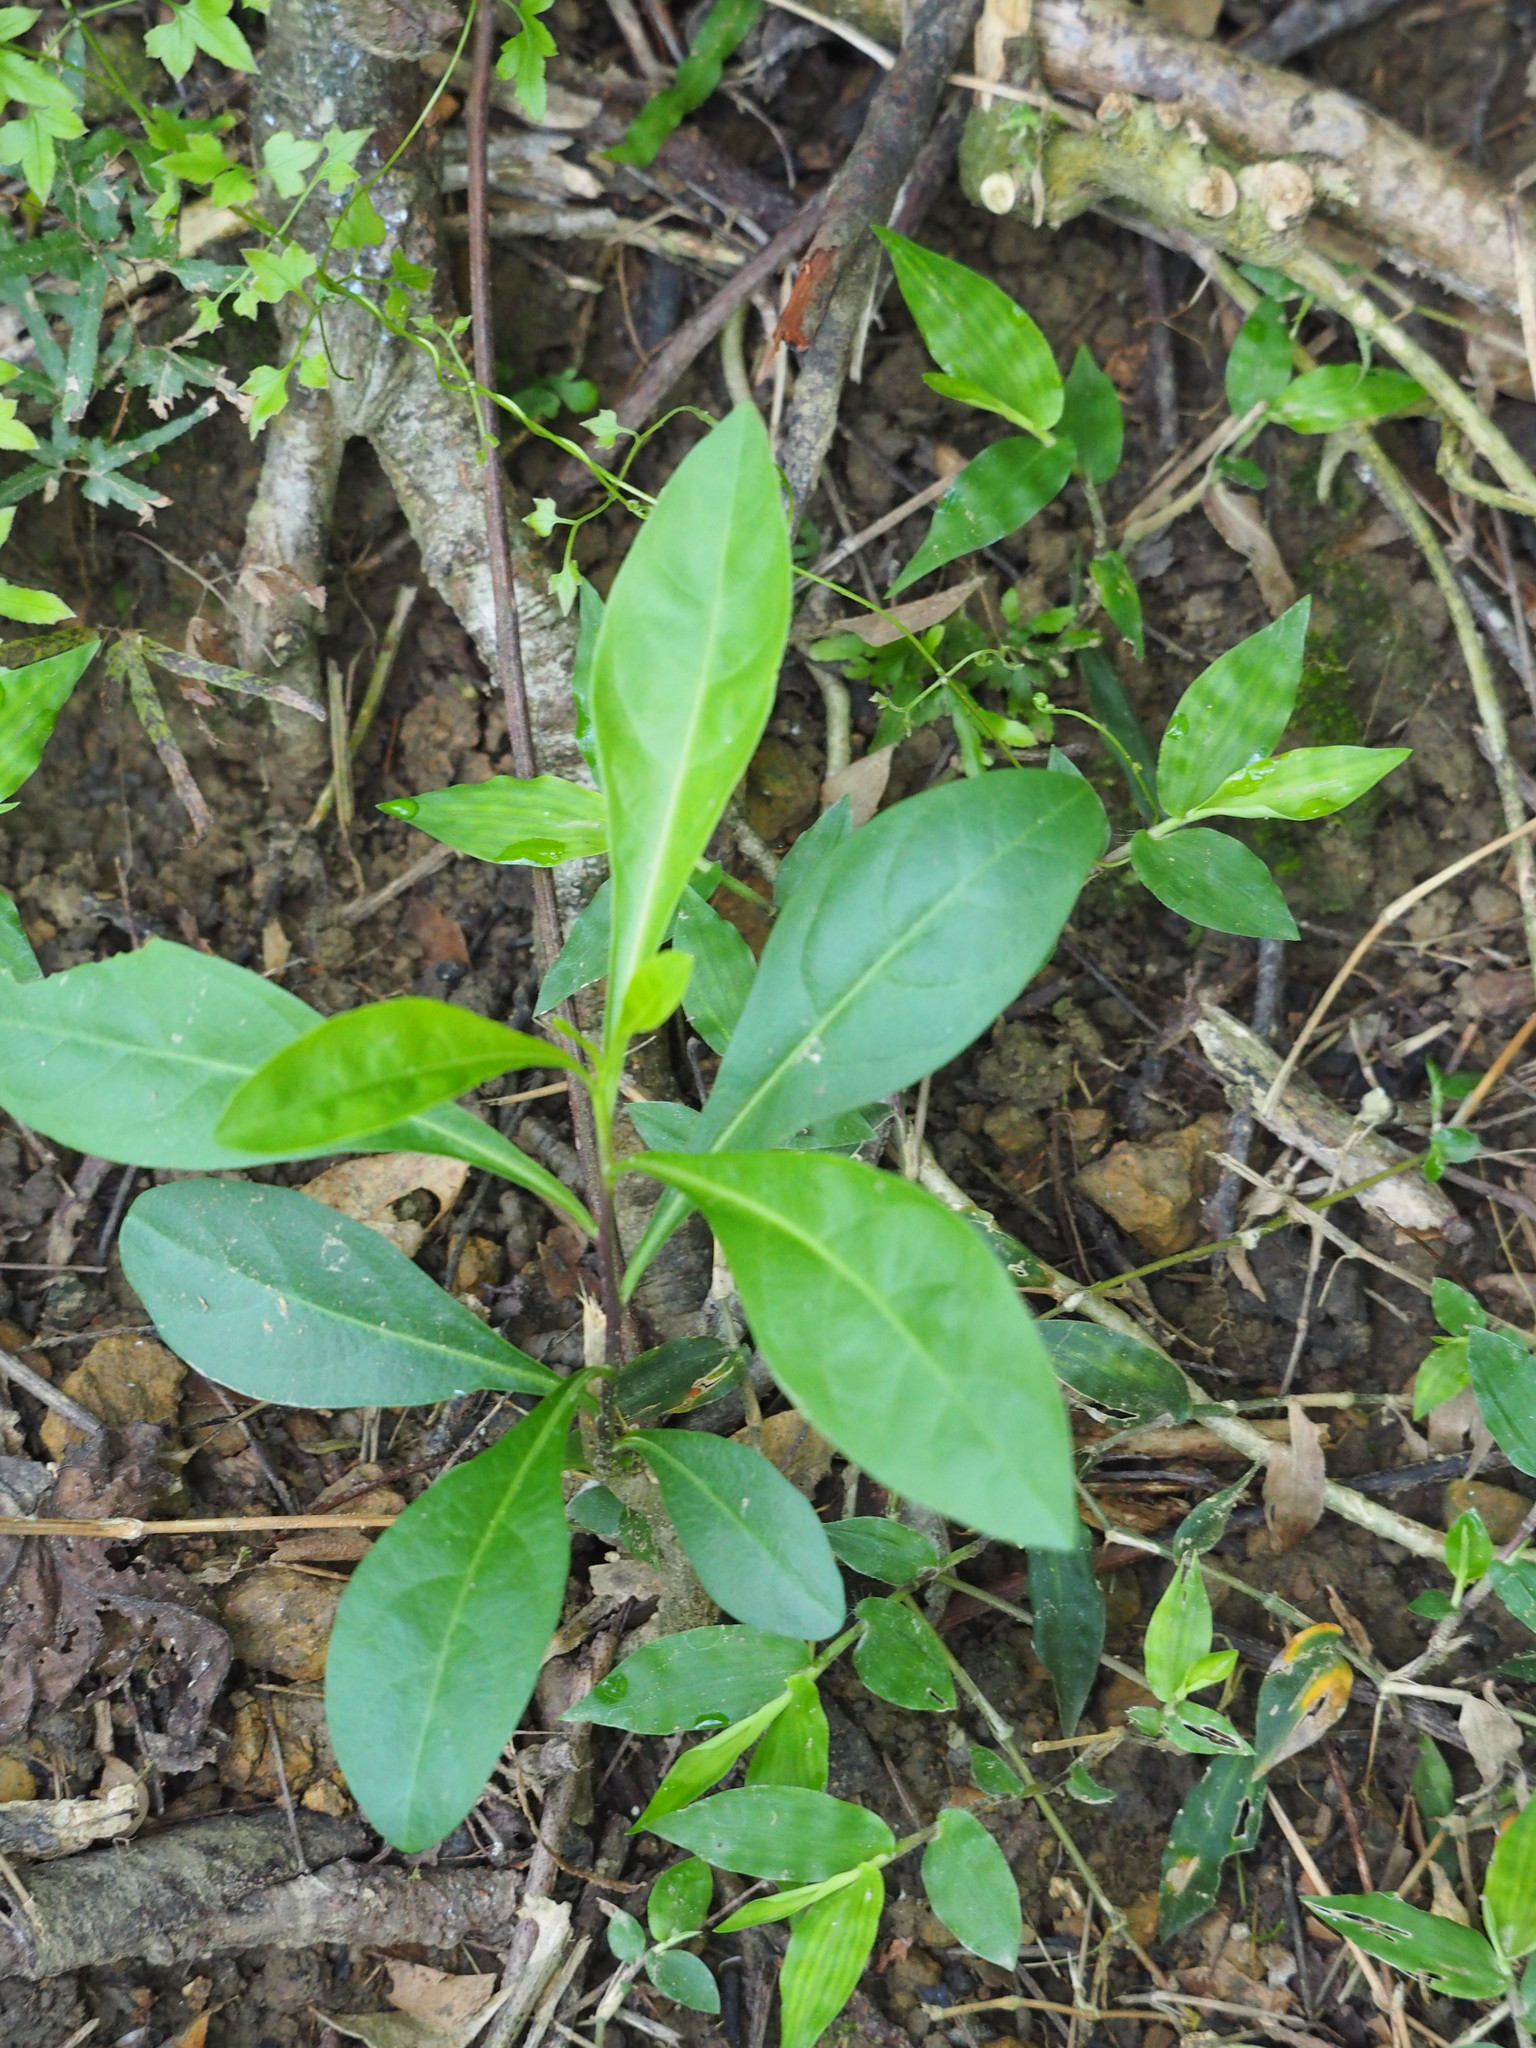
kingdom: Plantae
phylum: Tracheophyta
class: Magnoliopsida
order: Solanales
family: Solanaceae
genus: Solanum
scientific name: Solanum diphyllum
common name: Twoleaf nightshade
